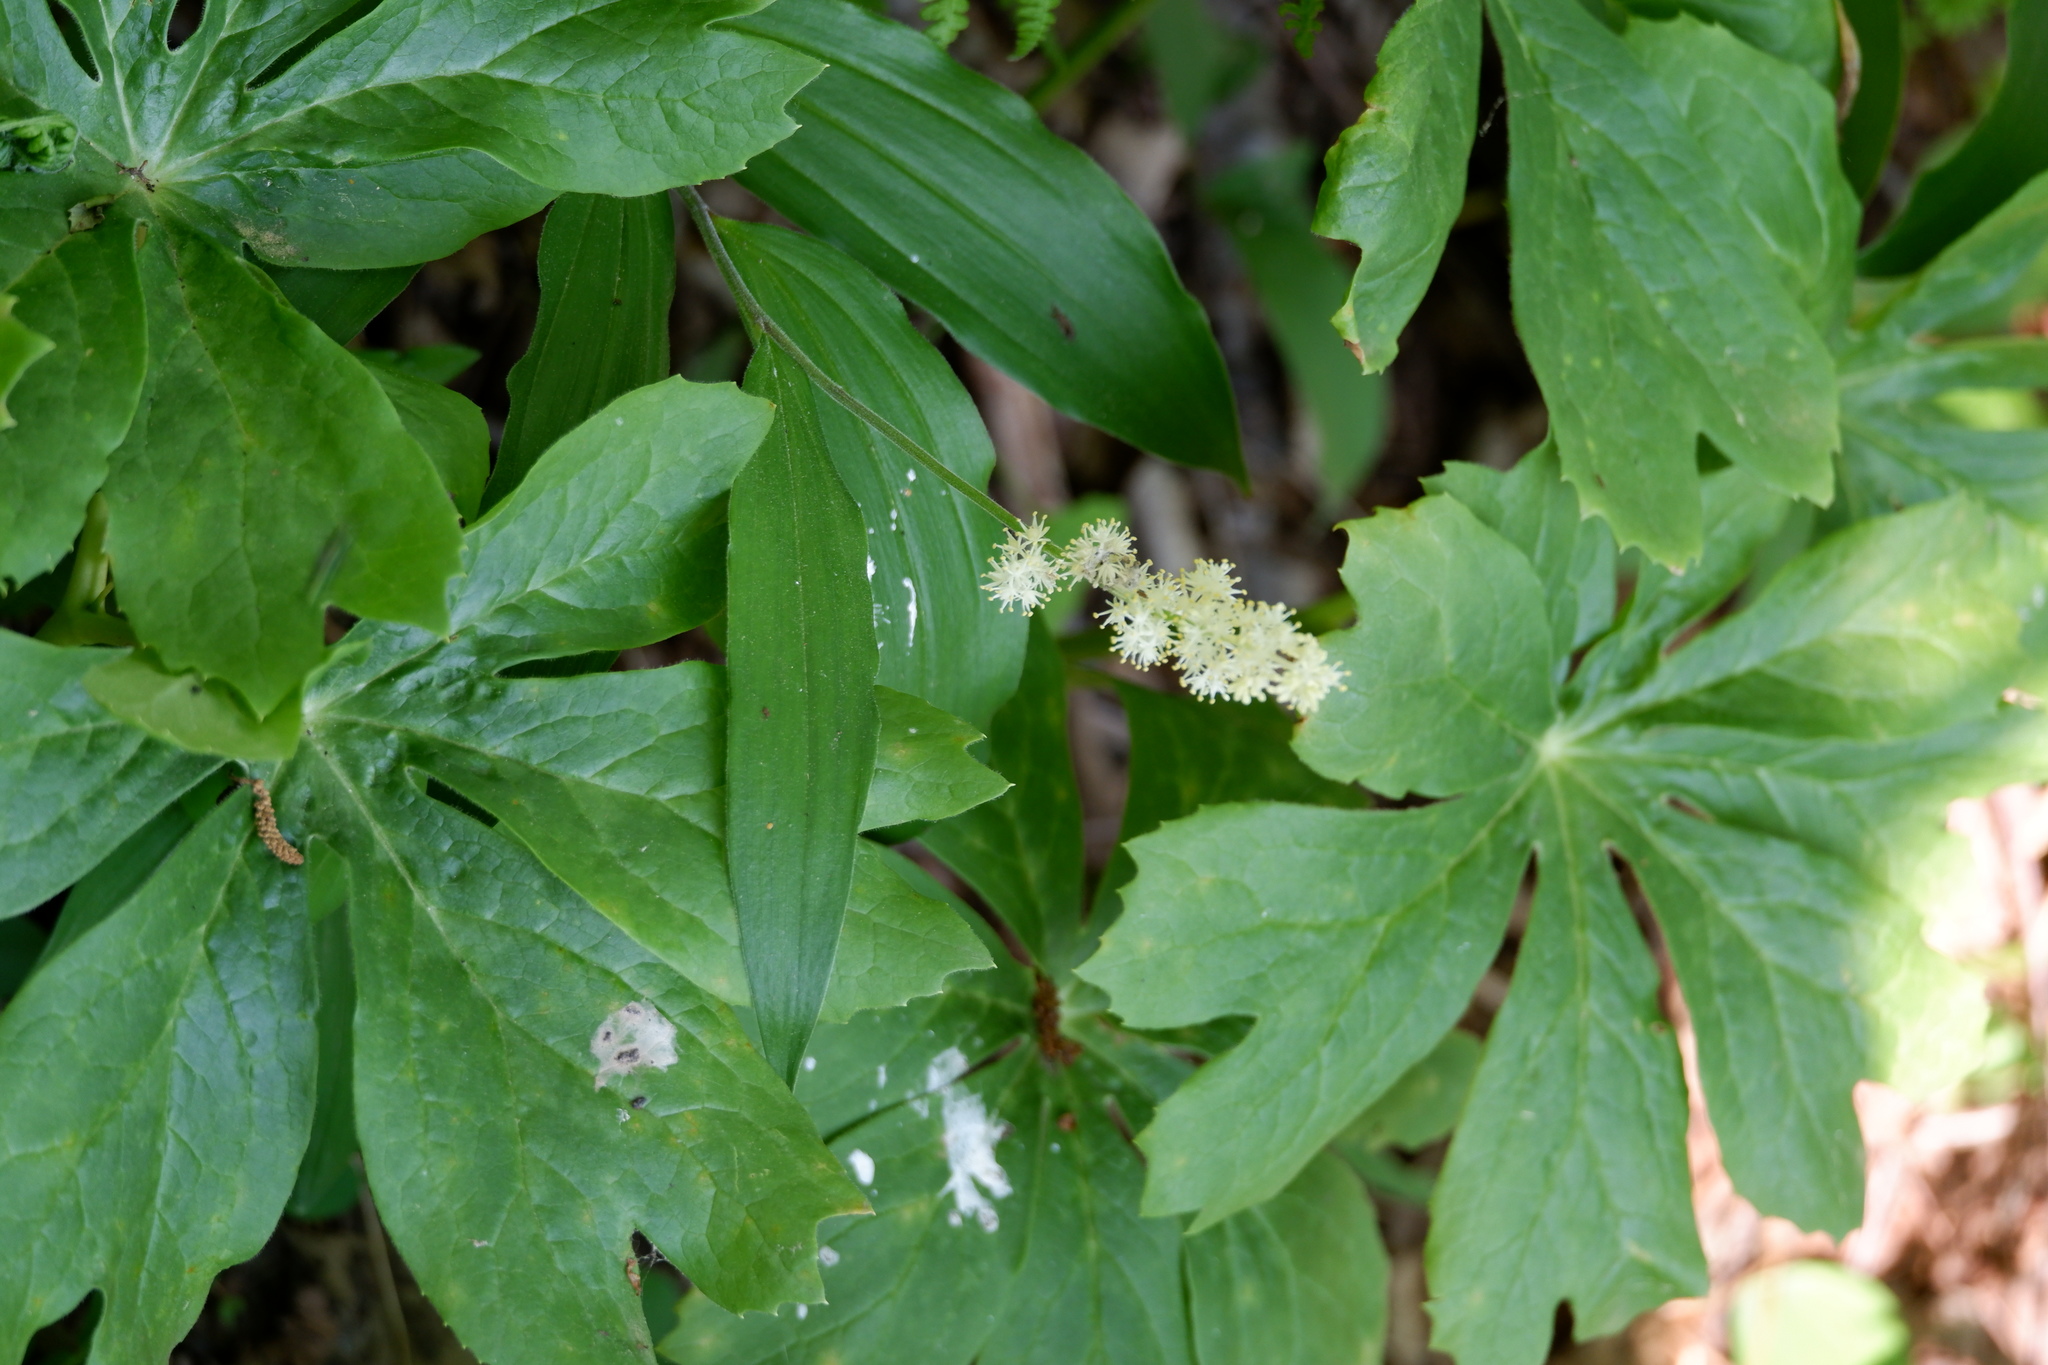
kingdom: Plantae
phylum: Tracheophyta
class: Liliopsida
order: Asparagales
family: Asparagaceae
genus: Maianthemum
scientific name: Maianthemum racemosum
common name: False spikenard
